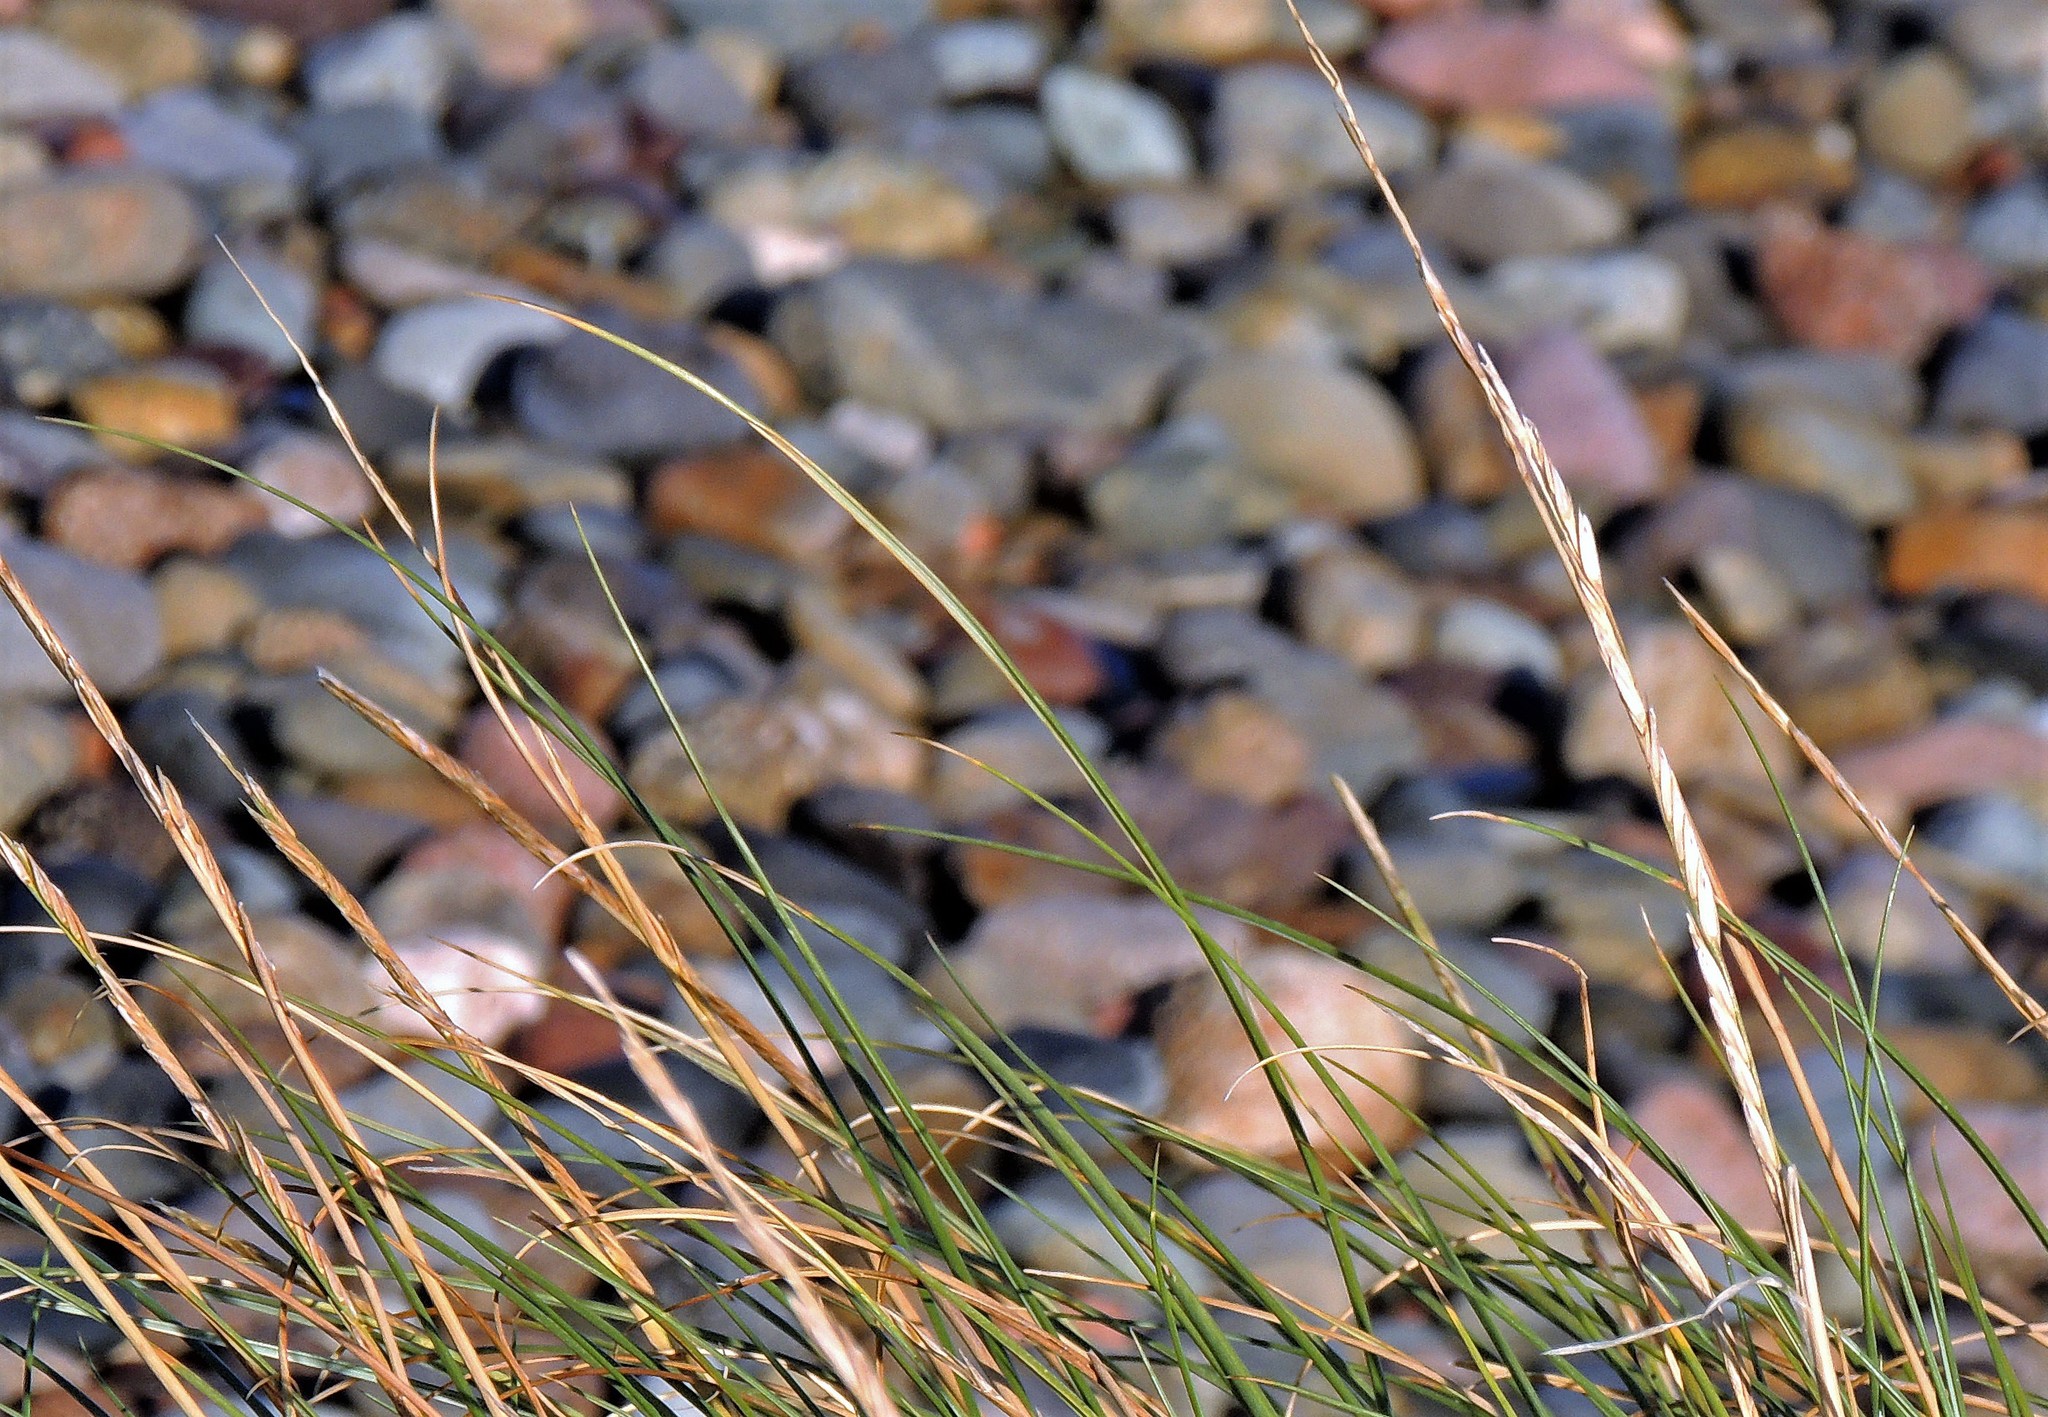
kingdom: Plantae
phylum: Tracheophyta
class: Liliopsida
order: Poales
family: Poaceae
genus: Sporobolus
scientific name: Sporobolus alterniflorus
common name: Atlantic cordgrass
